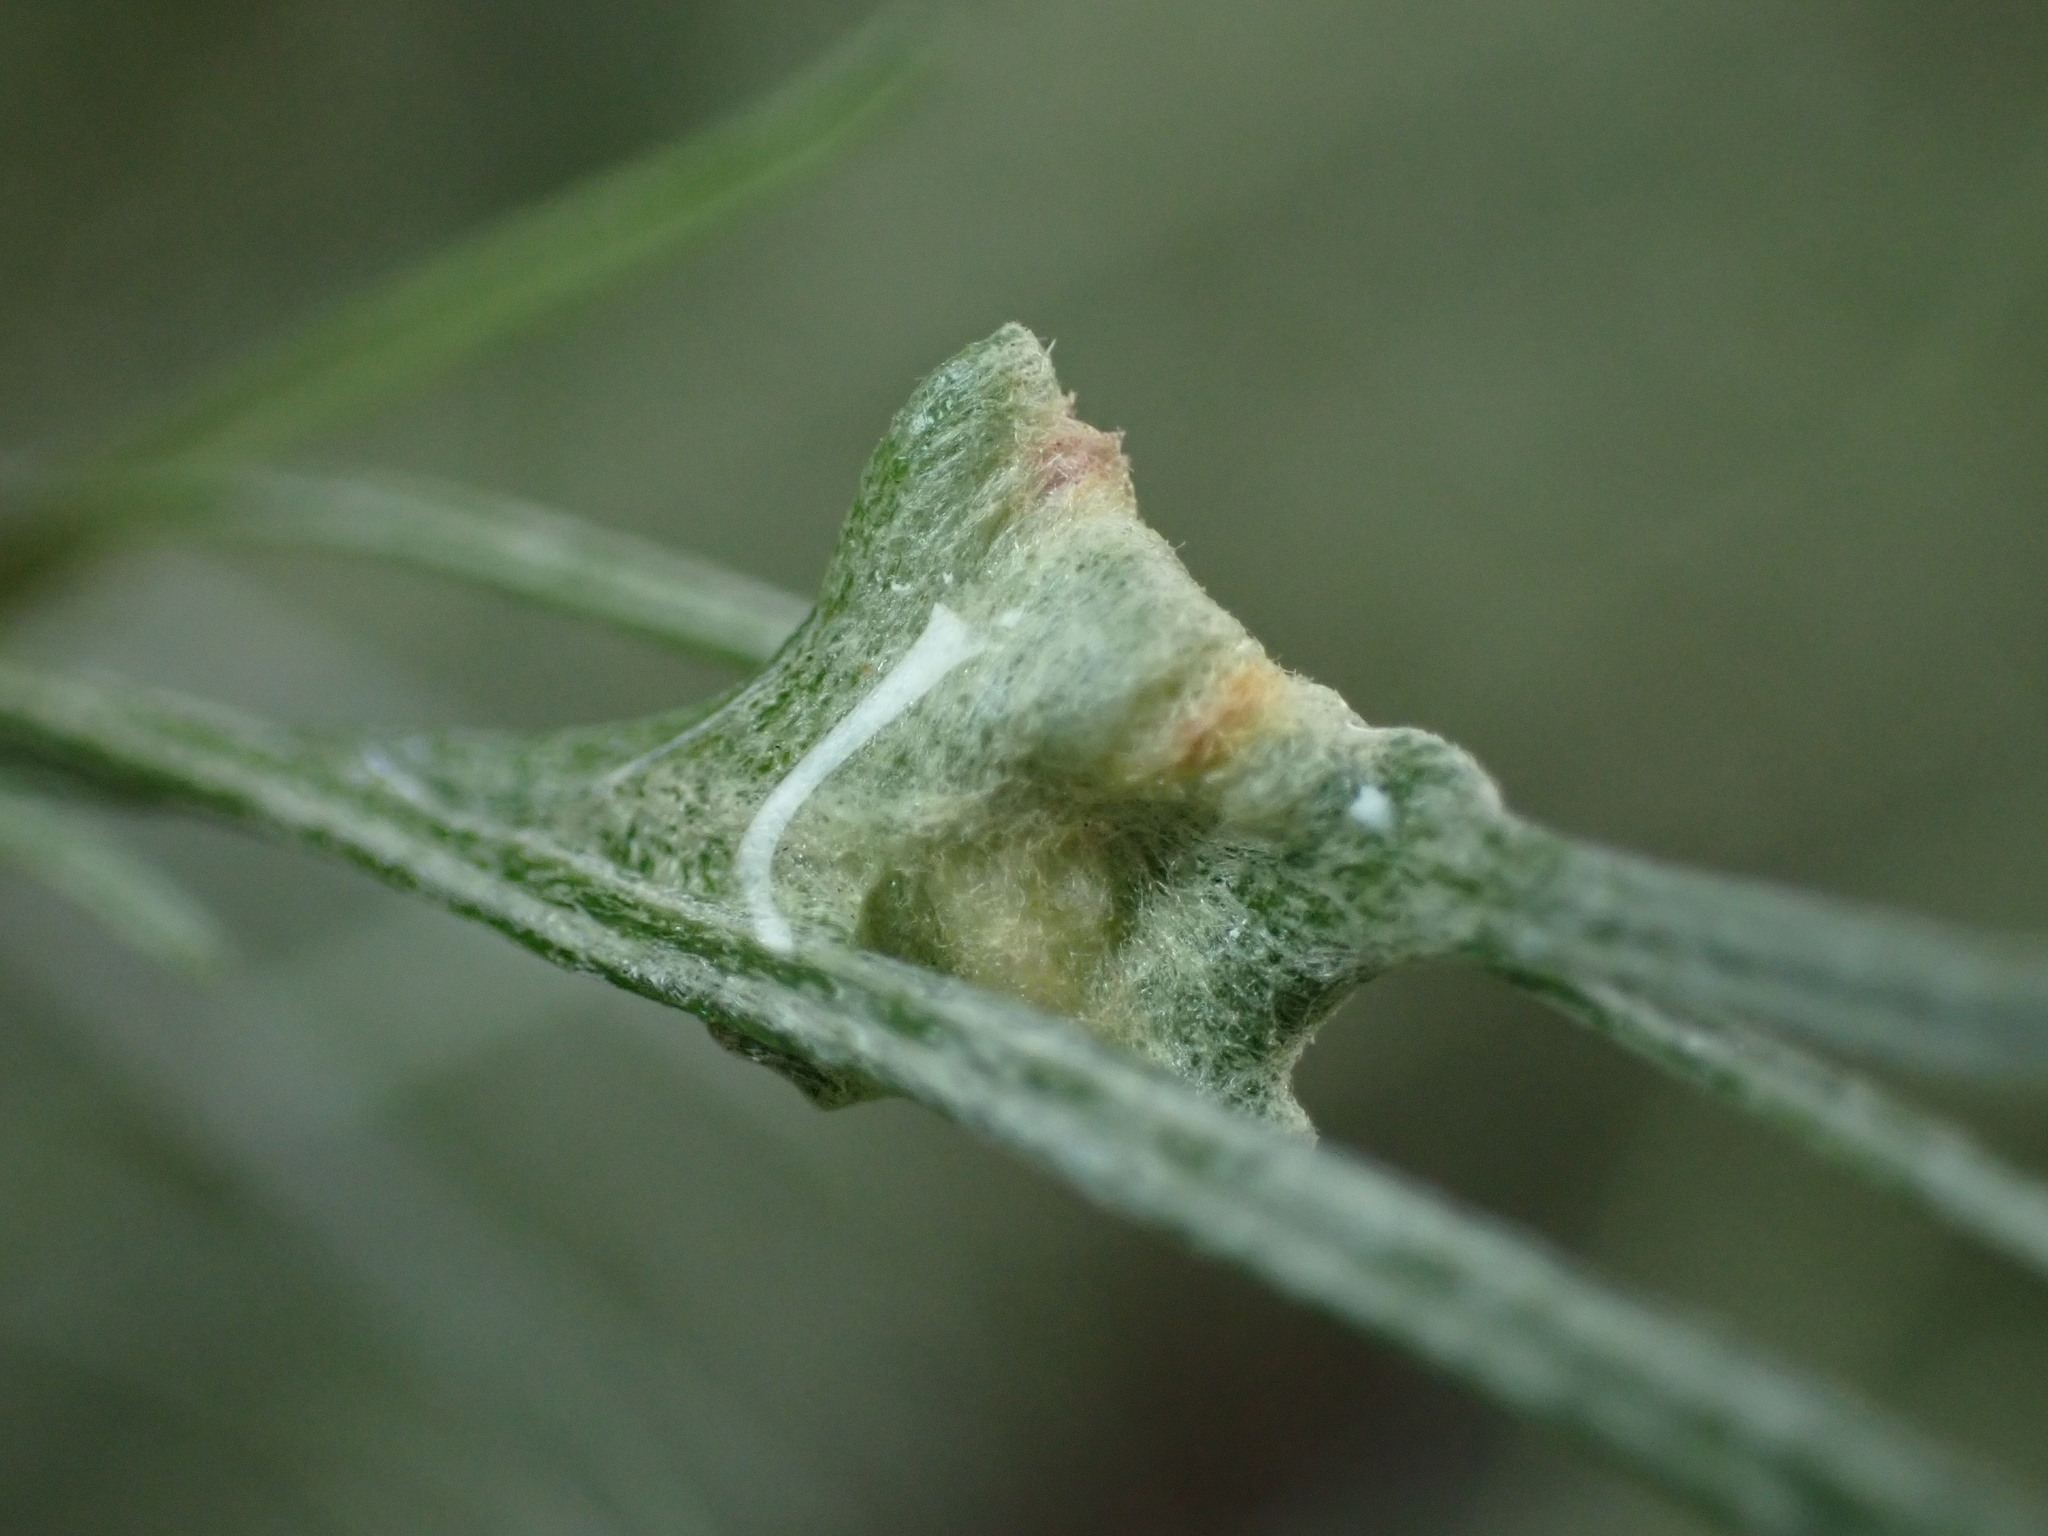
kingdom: Animalia
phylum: Arthropoda
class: Arachnida
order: Trombidiformes
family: Eriophyidae
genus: Aceria
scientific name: Aceria
